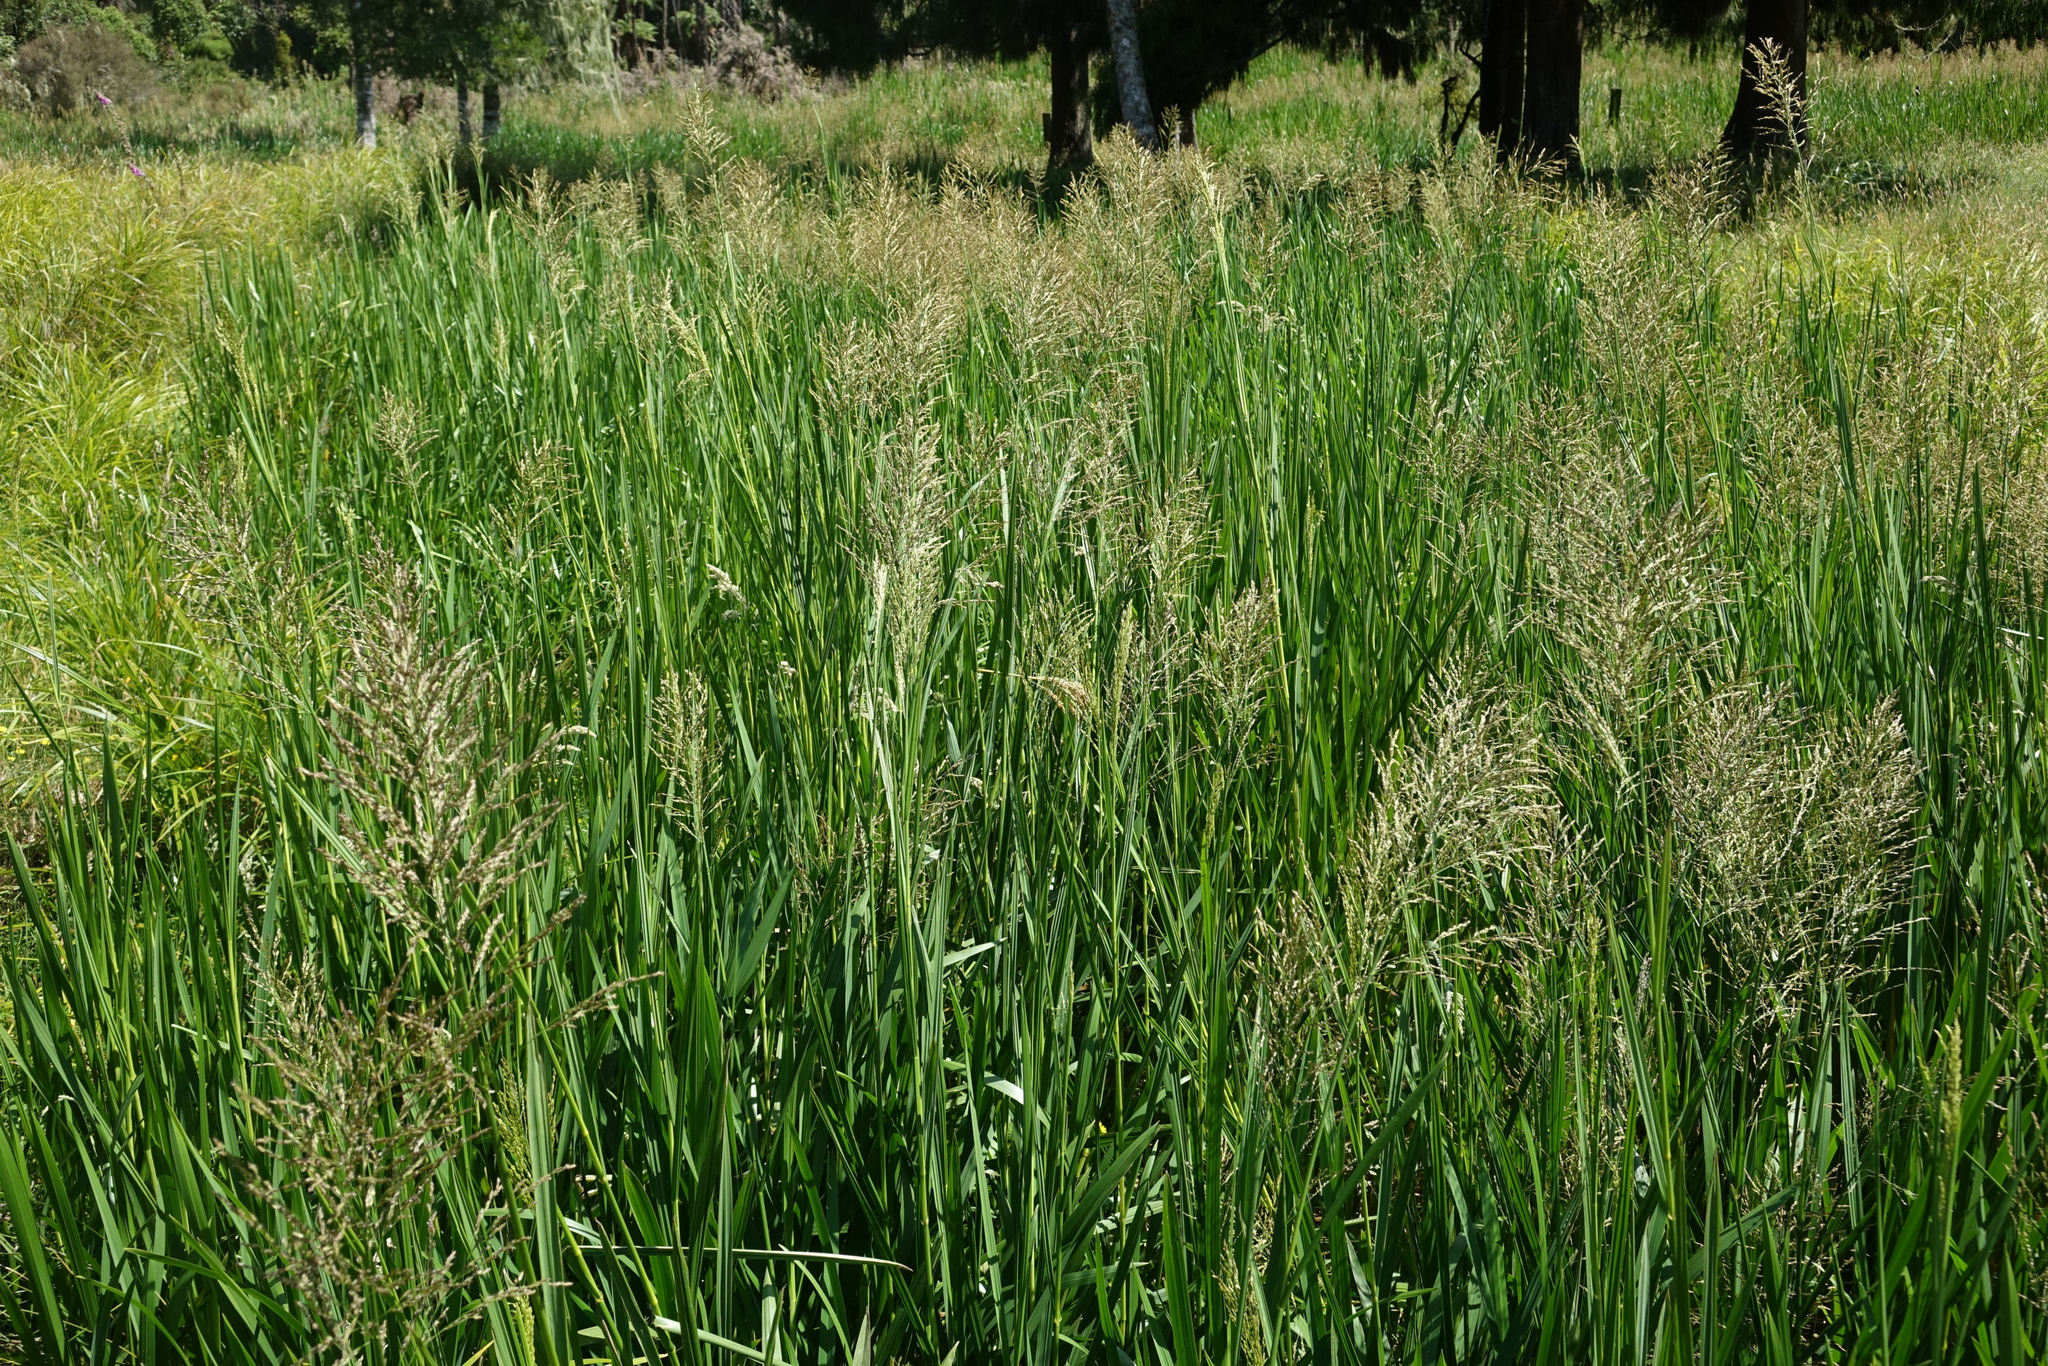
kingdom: Plantae
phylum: Tracheophyta
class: Liliopsida
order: Poales
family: Poaceae
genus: Glyceria
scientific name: Glyceria maxima
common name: Reed mannagrass
